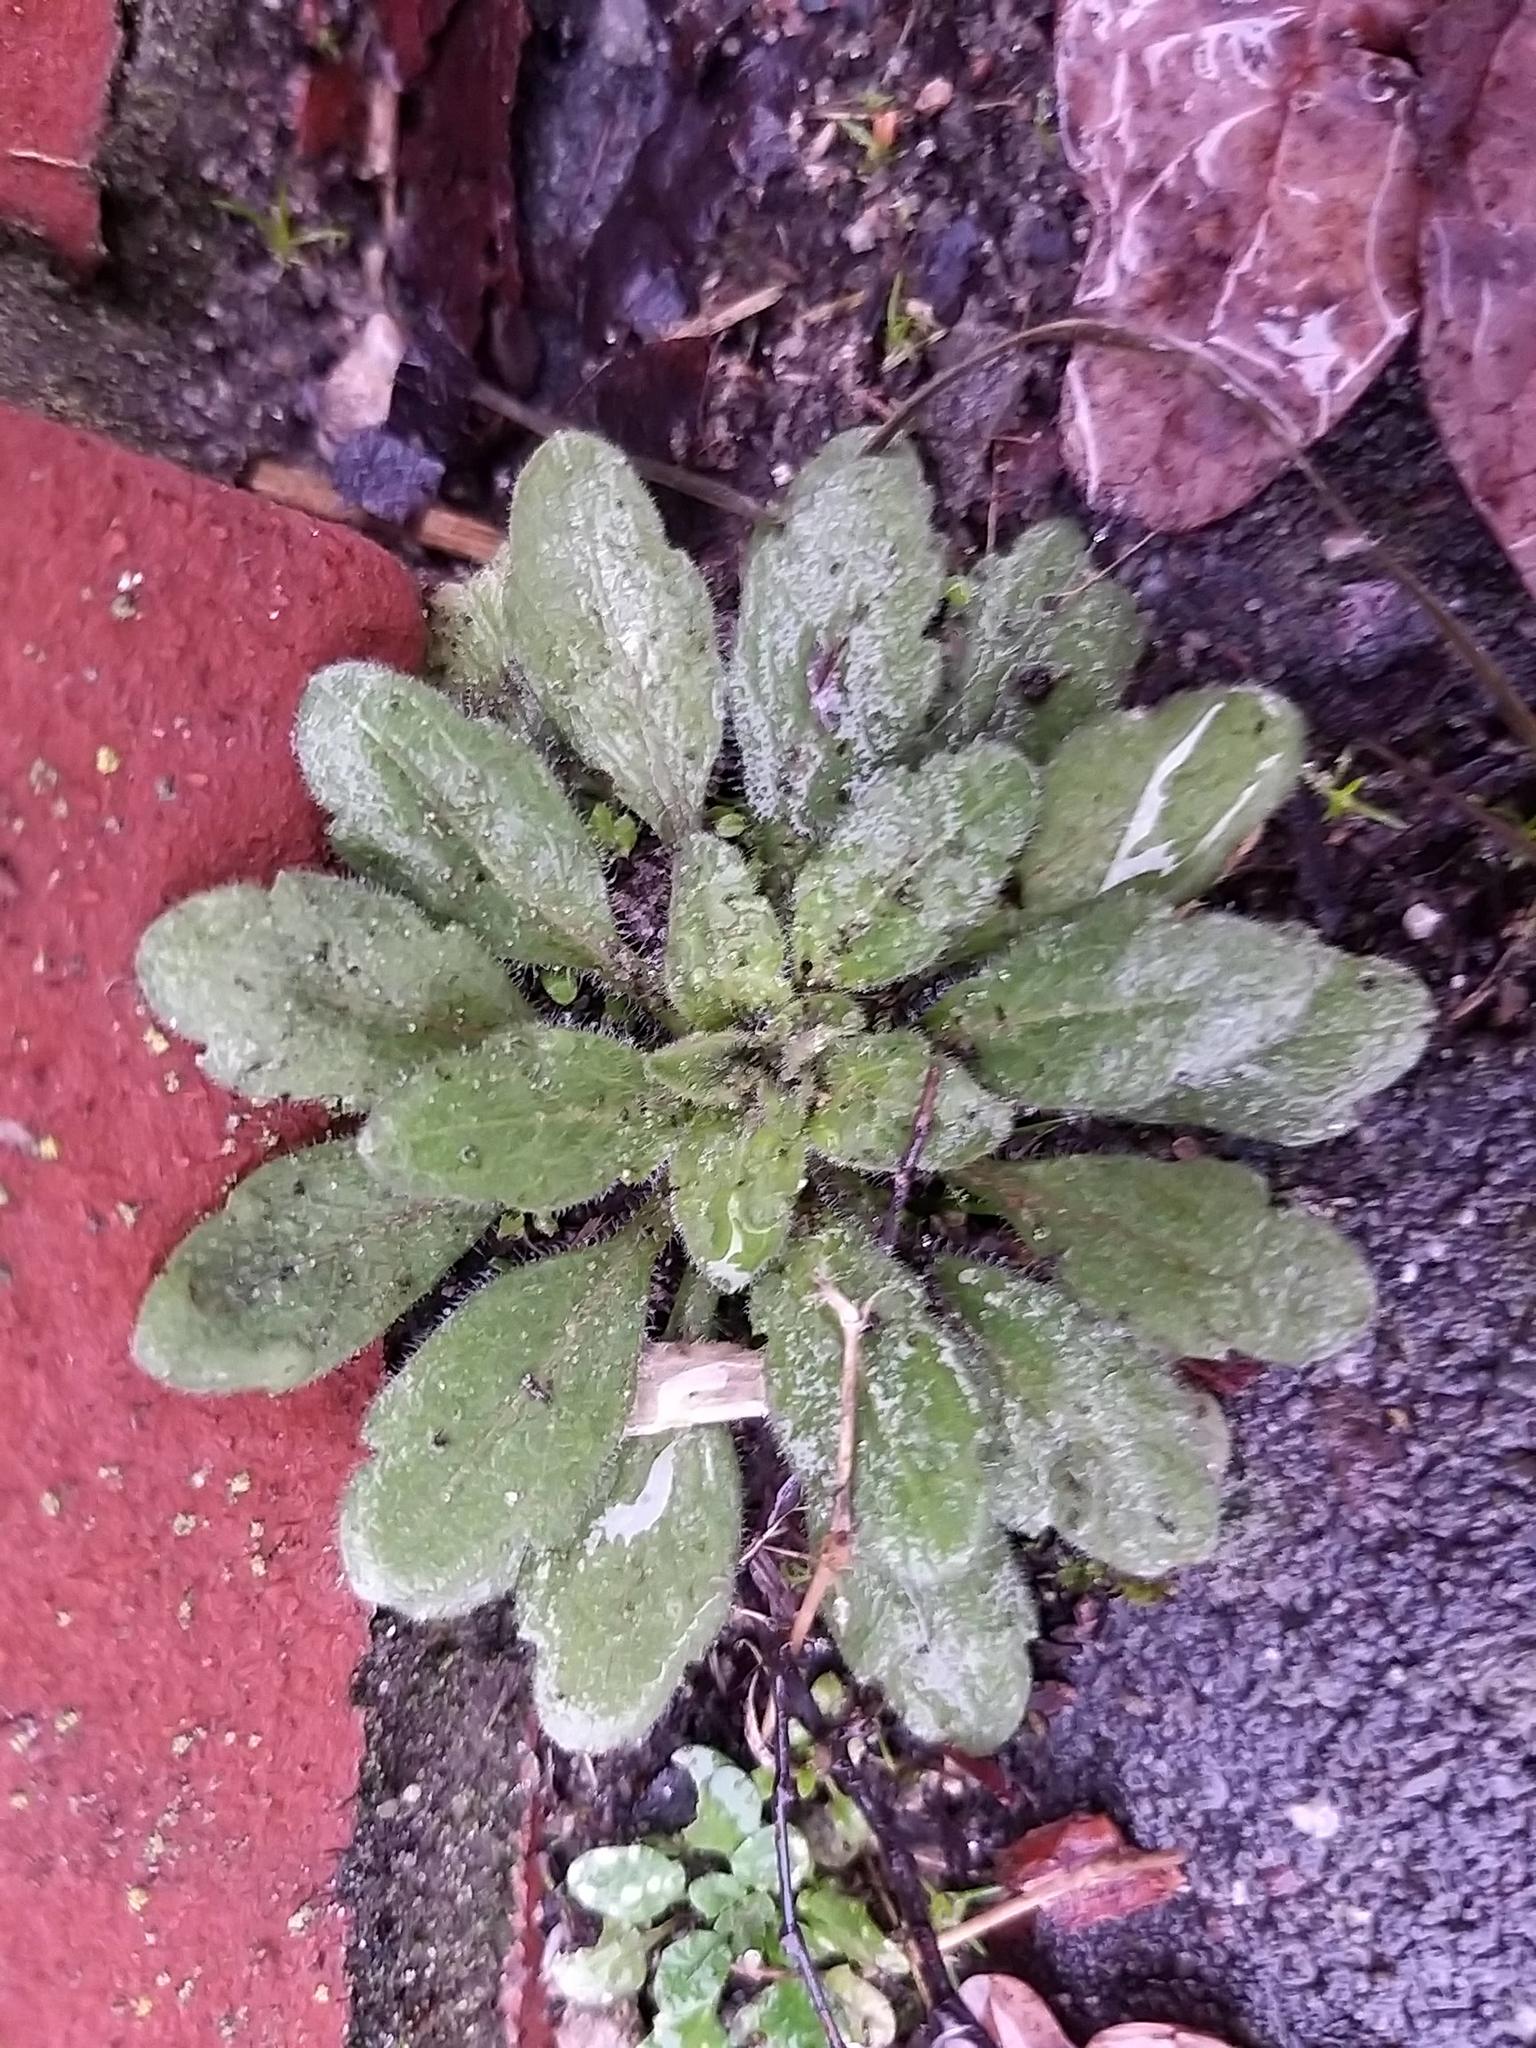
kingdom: Plantae
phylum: Tracheophyta
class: Magnoliopsida
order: Asterales
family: Asteraceae
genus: Erigeron
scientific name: Erigeron canadensis
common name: Canadian fleabane
